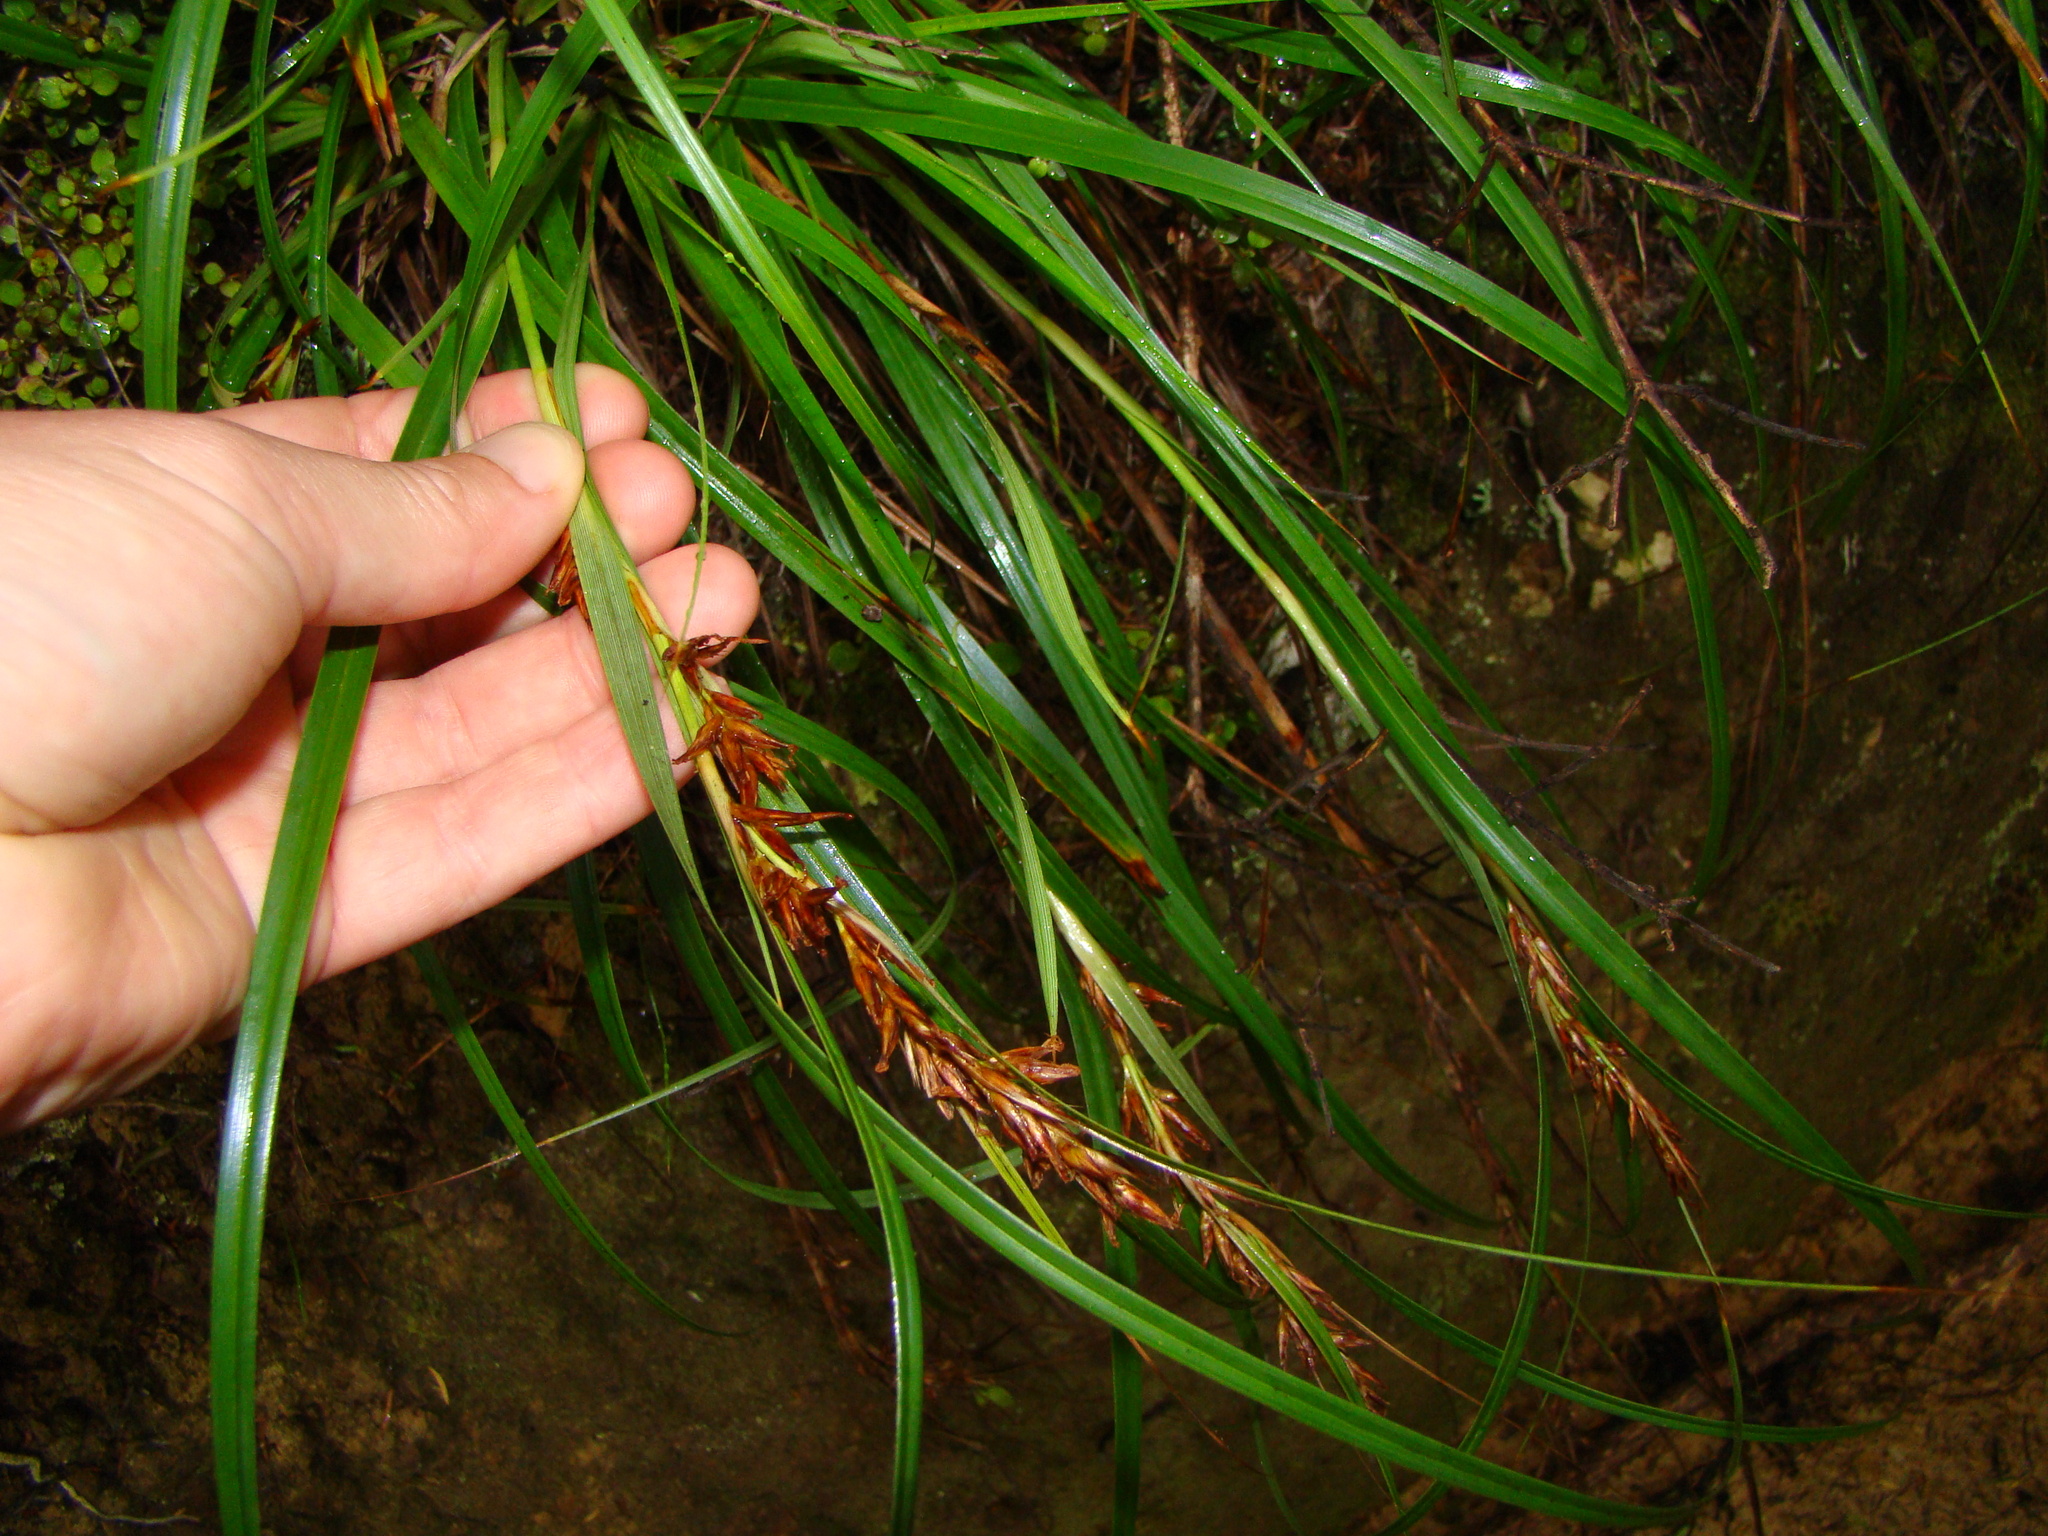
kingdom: Plantae
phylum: Tracheophyta
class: Liliopsida
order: Poales
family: Cyperaceae
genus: Morelotia
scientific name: Morelotia affinis
